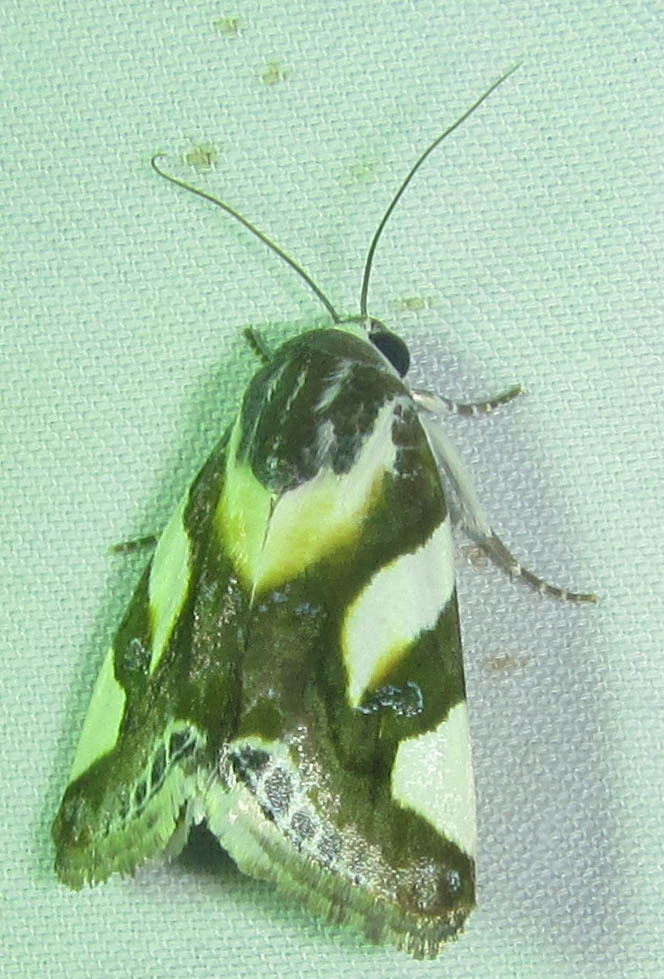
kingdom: Animalia
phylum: Arthropoda
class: Insecta
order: Lepidoptera
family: Noctuidae
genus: Acontia
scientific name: Acontia umbrigera
